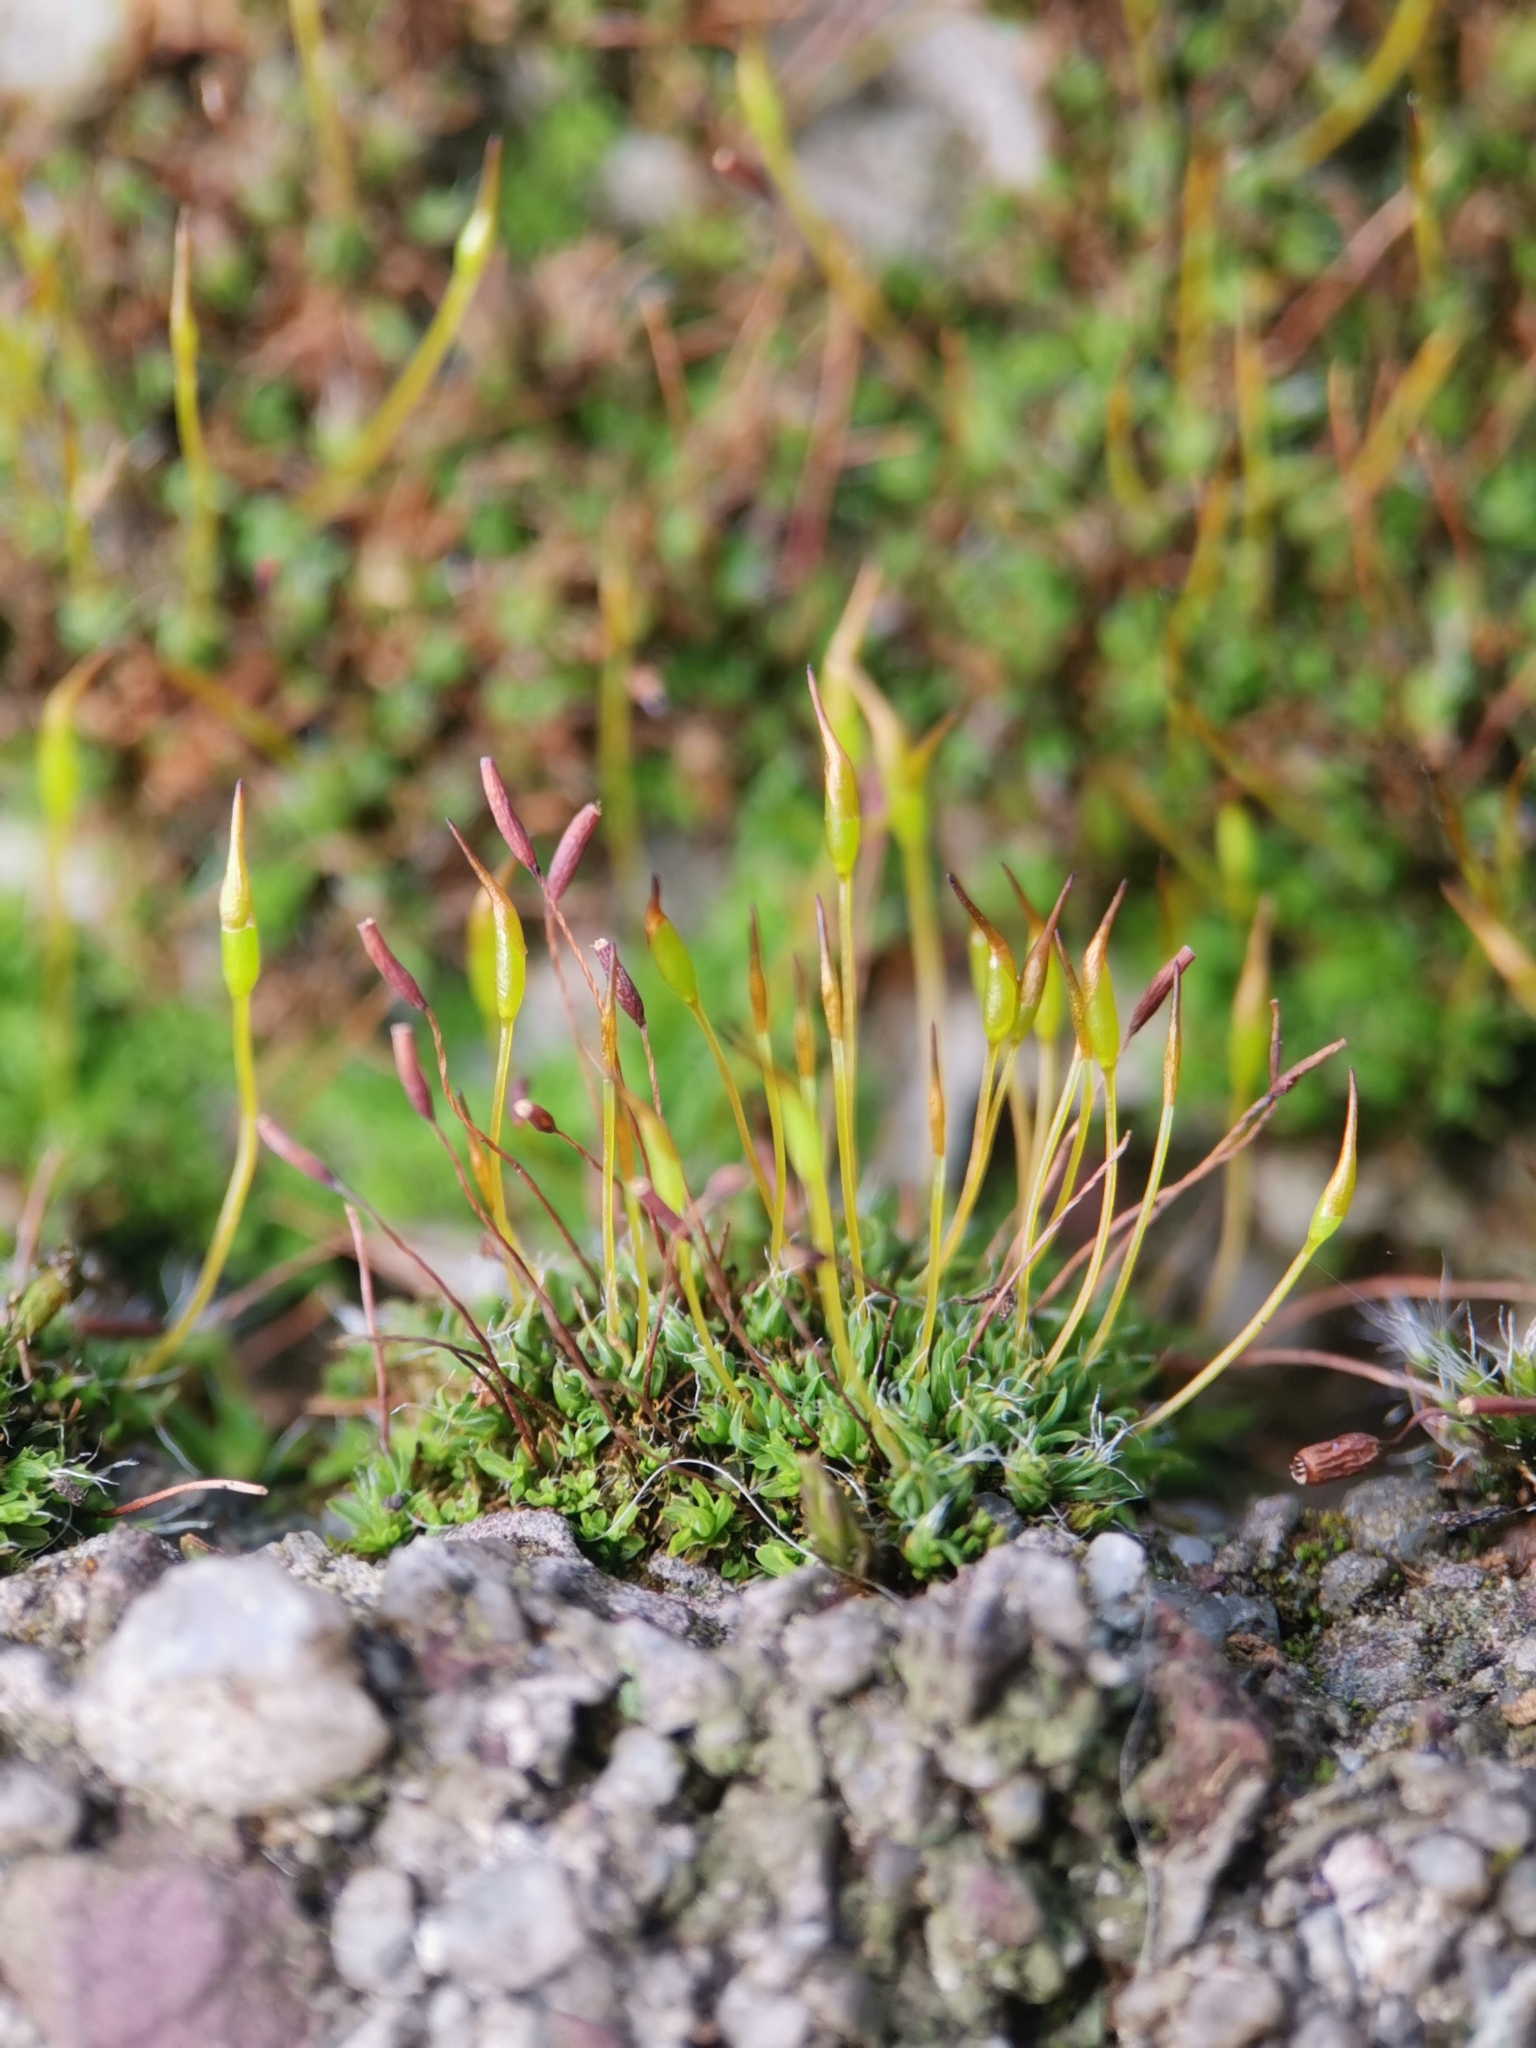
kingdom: Plantae
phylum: Bryophyta
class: Bryopsida
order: Pottiales
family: Pottiaceae
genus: Tortula
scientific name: Tortula muralis
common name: Wall screw-moss
